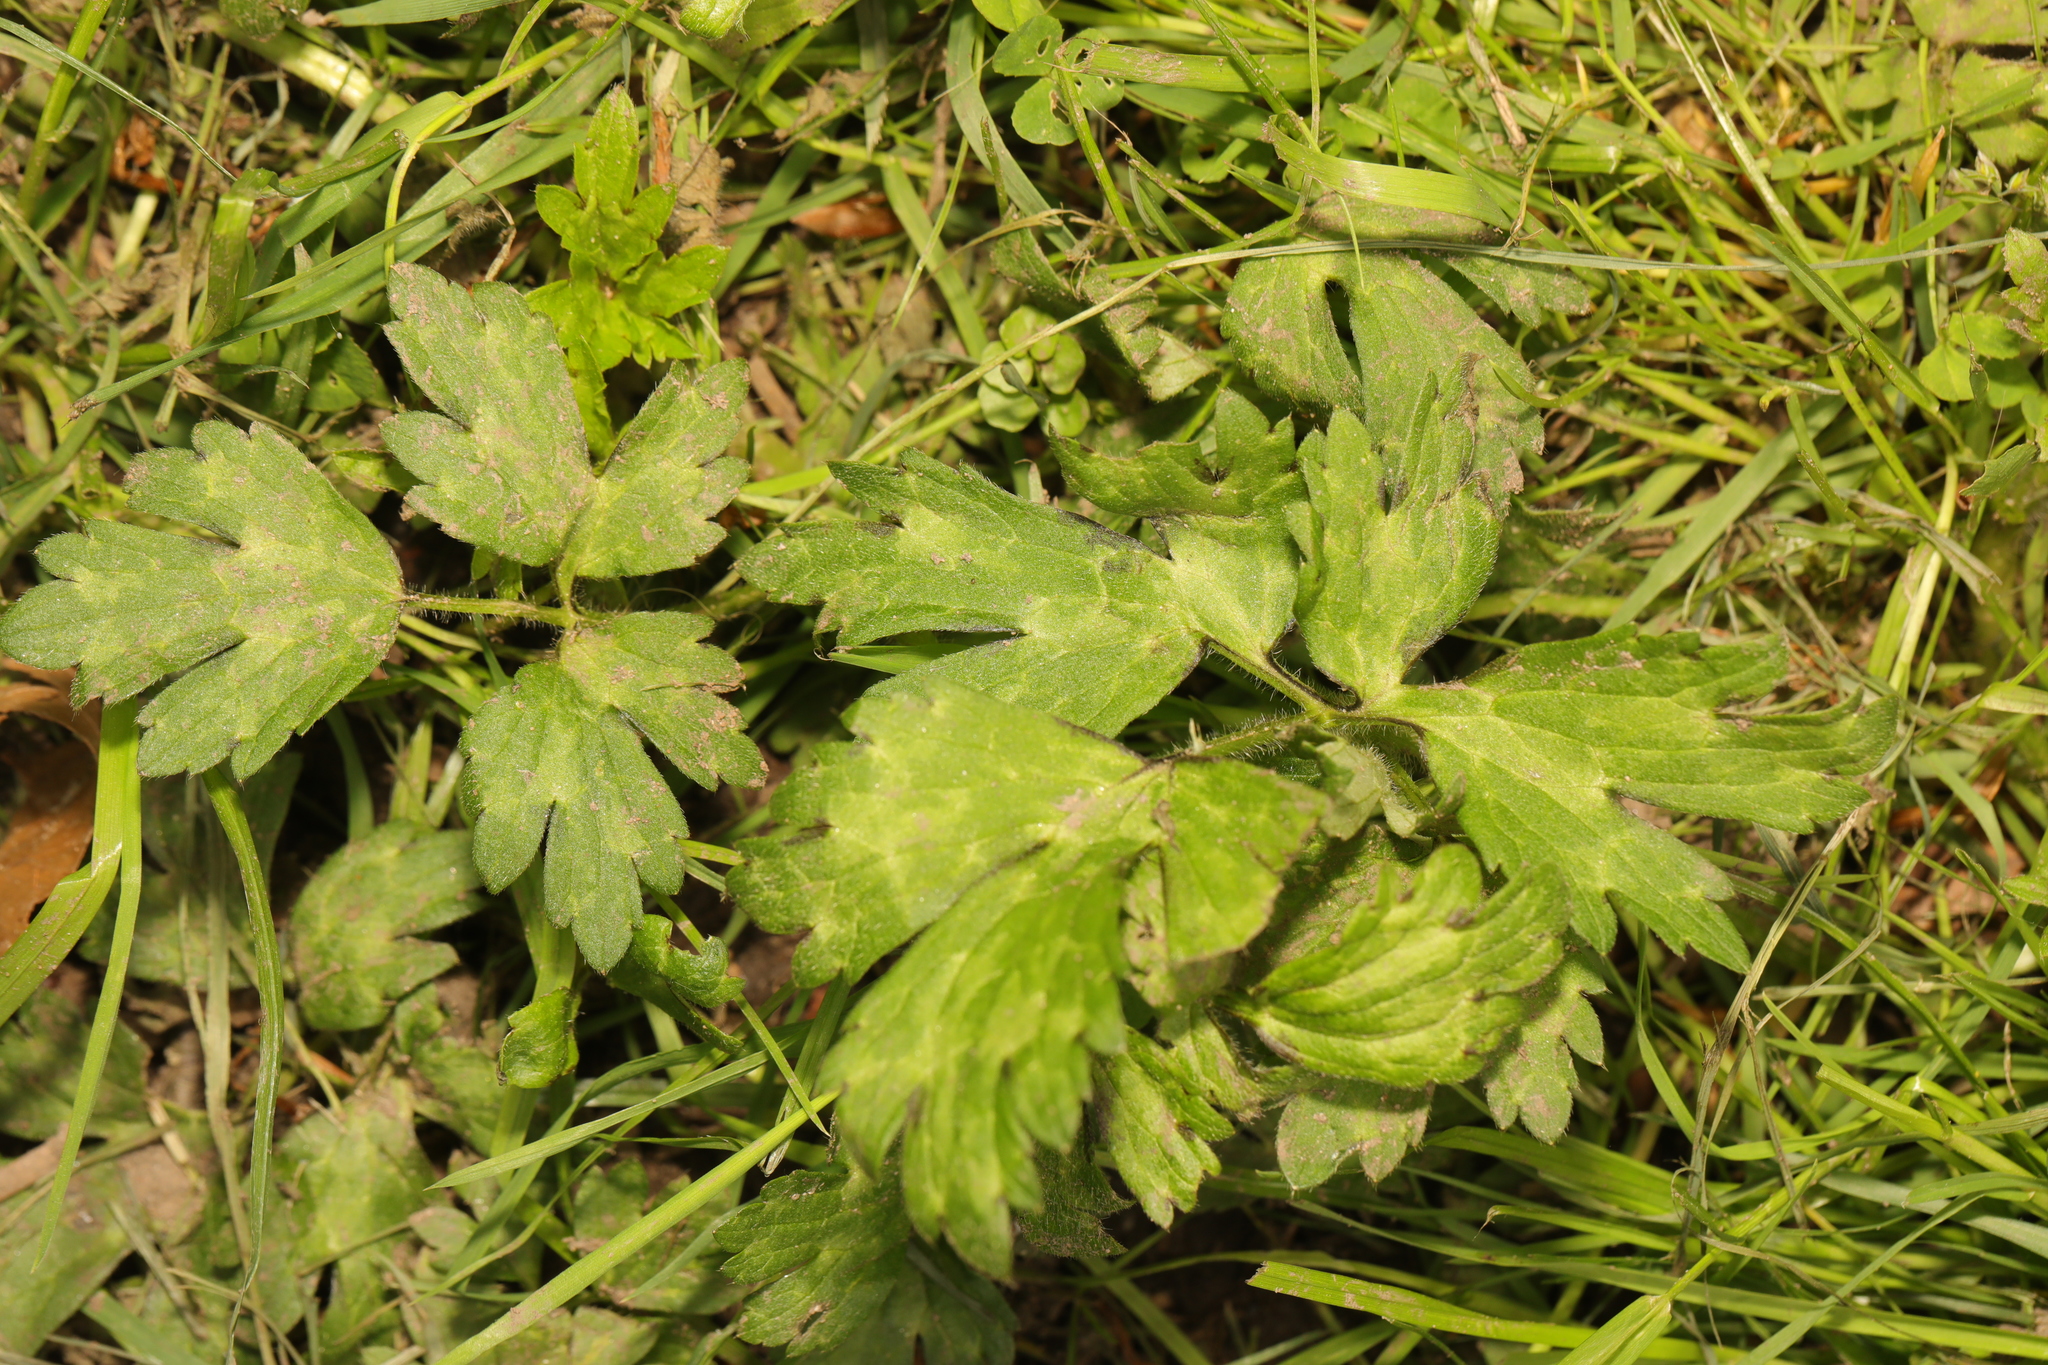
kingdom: Plantae
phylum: Tracheophyta
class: Magnoliopsida
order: Ranunculales
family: Ranunculaceae
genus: Ranunculus
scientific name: Ranunculus repens
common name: Creeping buttercup
